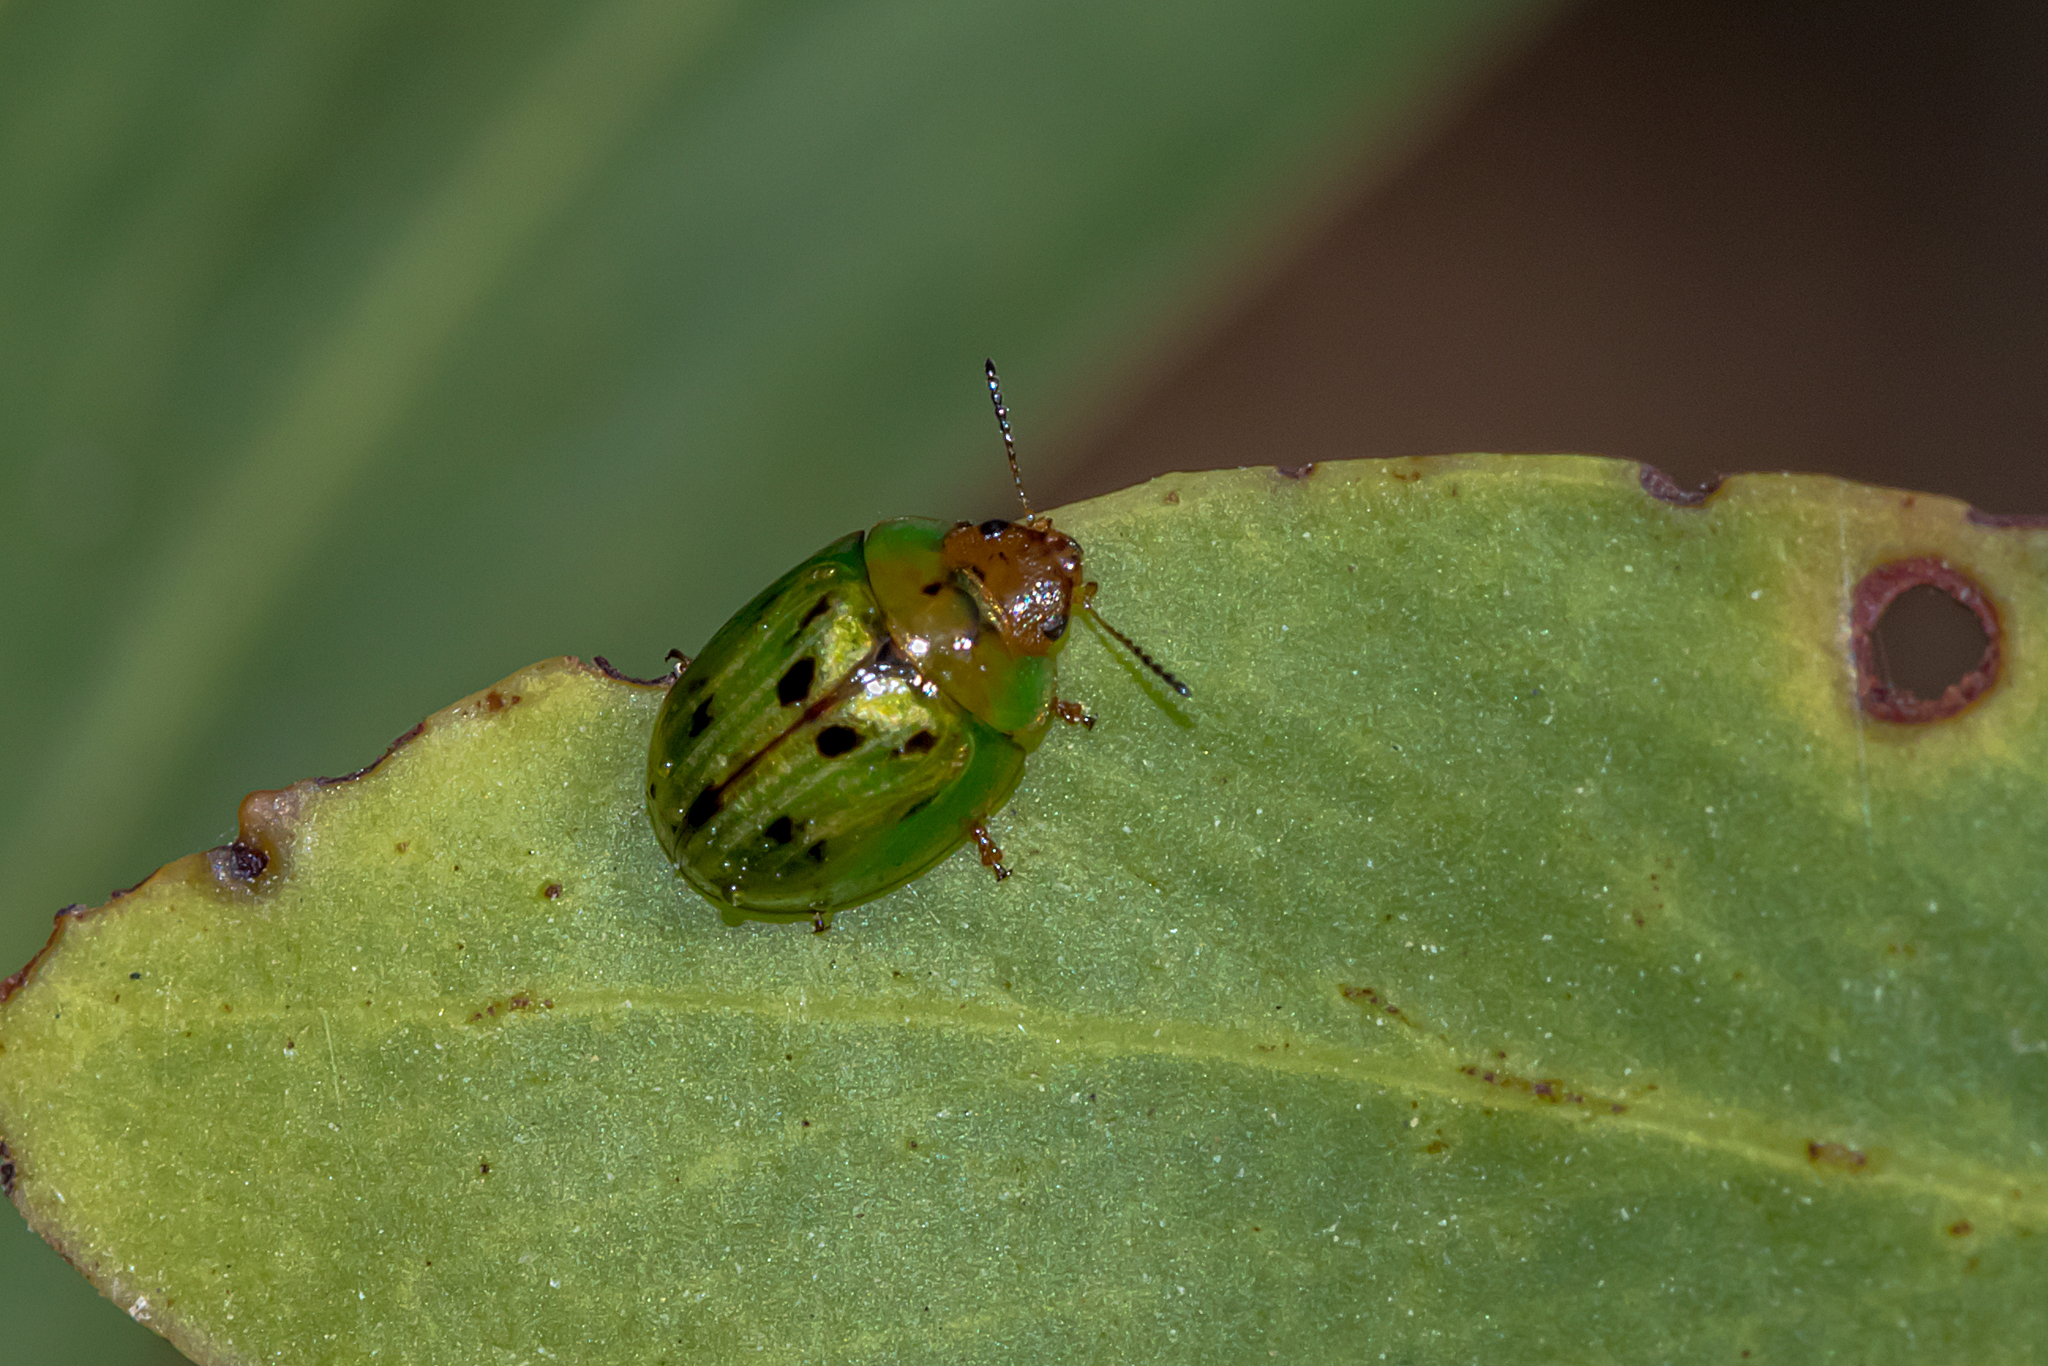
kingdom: Animalia
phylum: Arthropoda
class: Insecta
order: Coleoptera
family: Chrysomelidae
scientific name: Chrysomelidae
